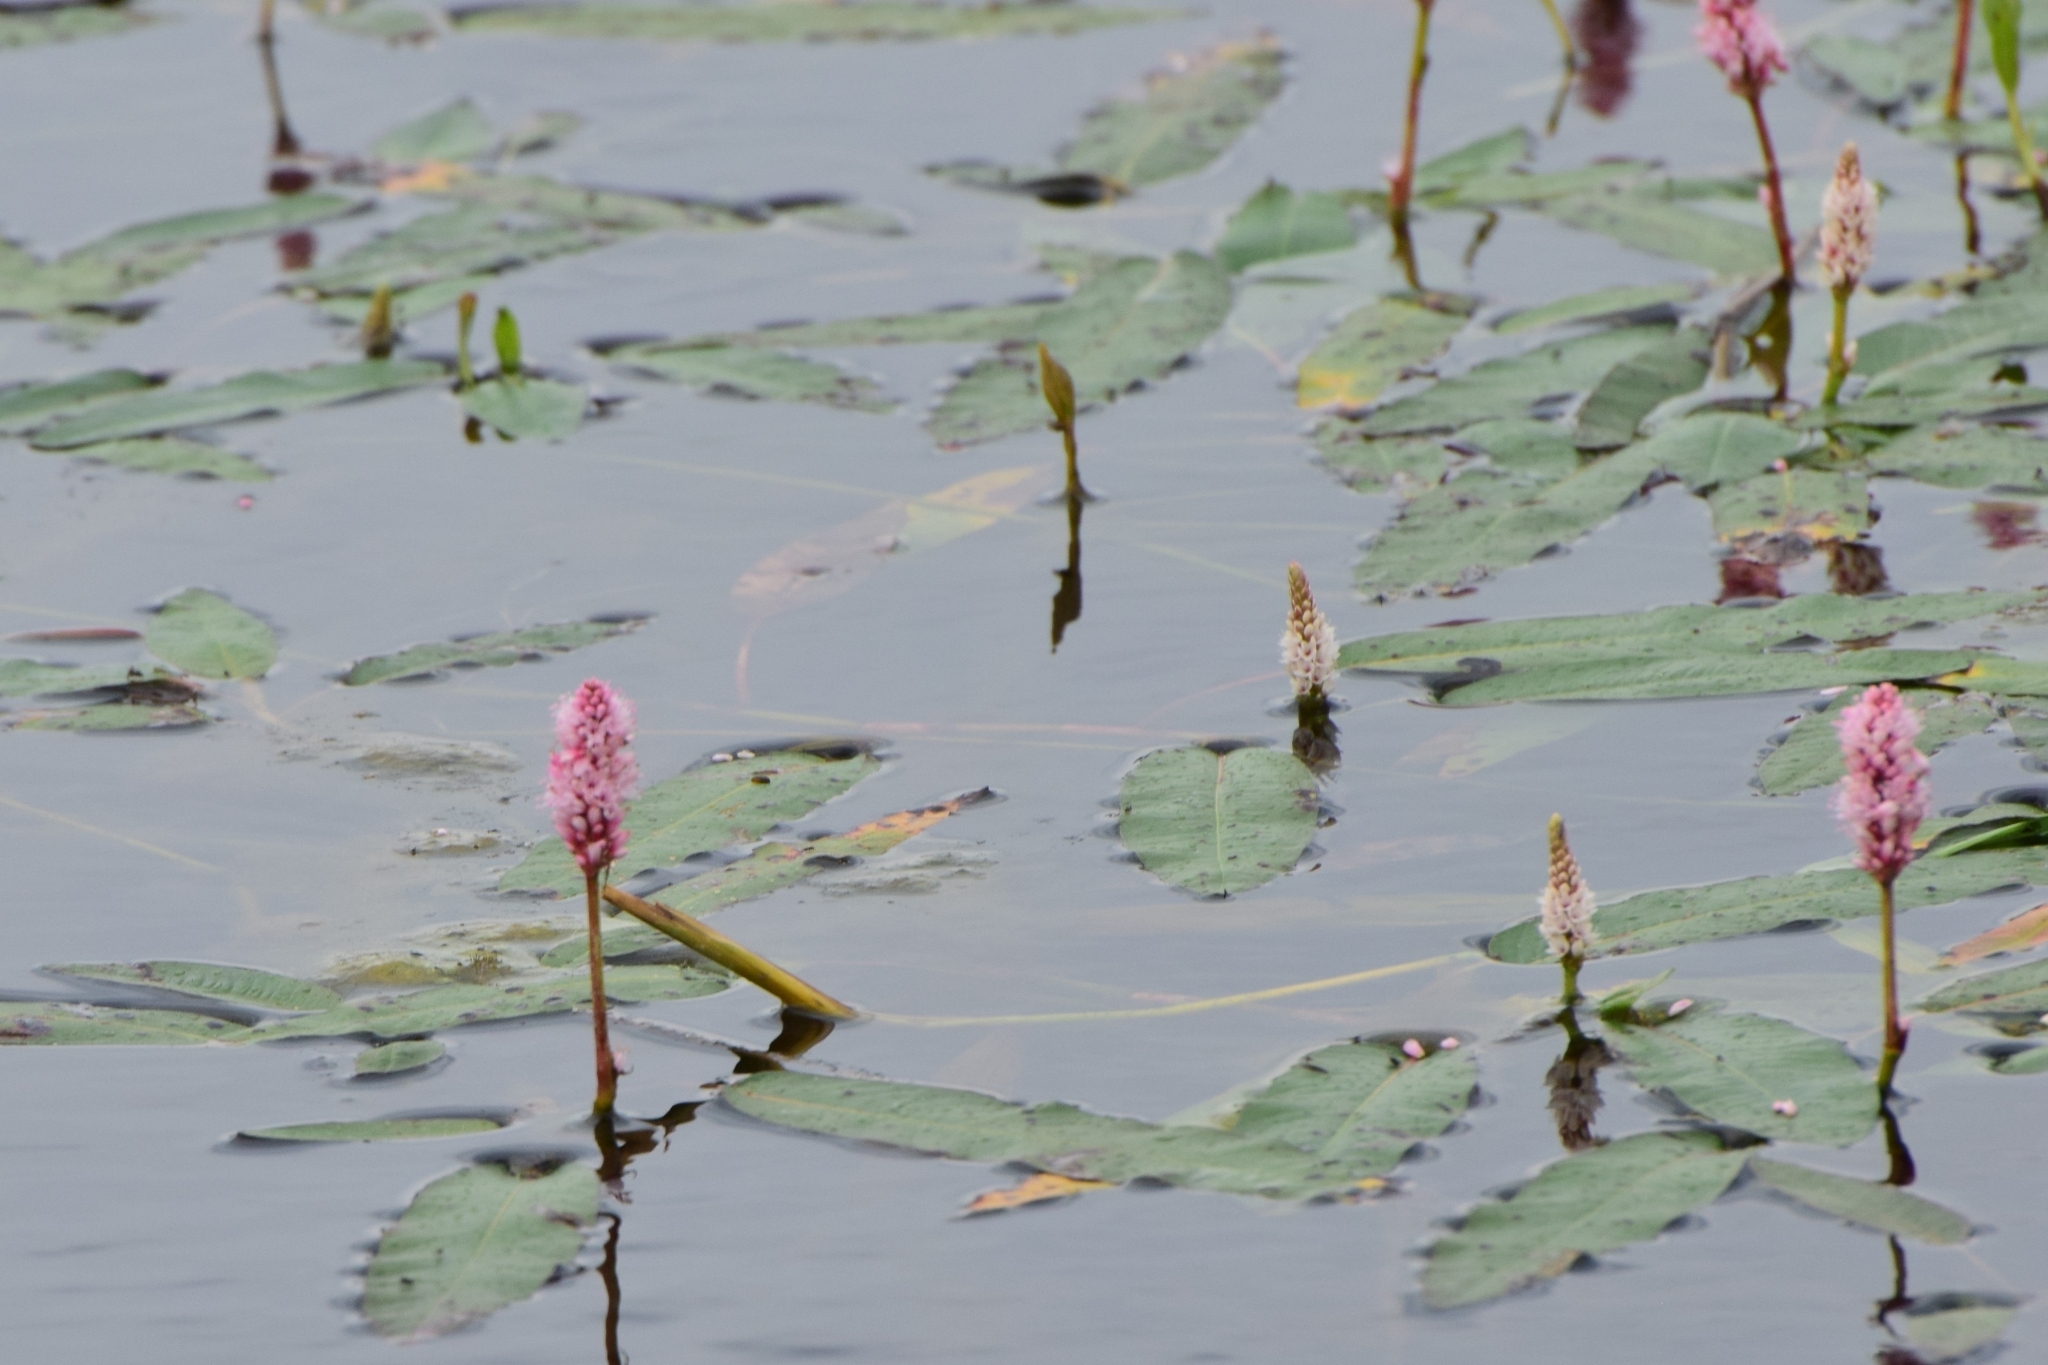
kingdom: Plantae
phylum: Tracheophyta
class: Magnoliopsida
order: Caryophyllales
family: Polygonaceae
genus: Persicaria
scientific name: Persicaria amphibia
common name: Amphibious bistort
